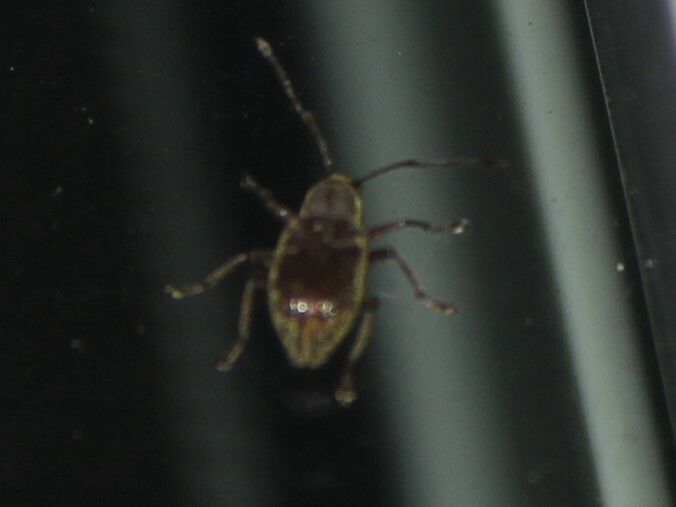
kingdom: Animalia
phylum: Arthropoda
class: Insecta
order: Coleoptera
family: Curculionidae
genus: Cyrtepistomus
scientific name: Cyrtepistomus castaneus
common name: Weevil
